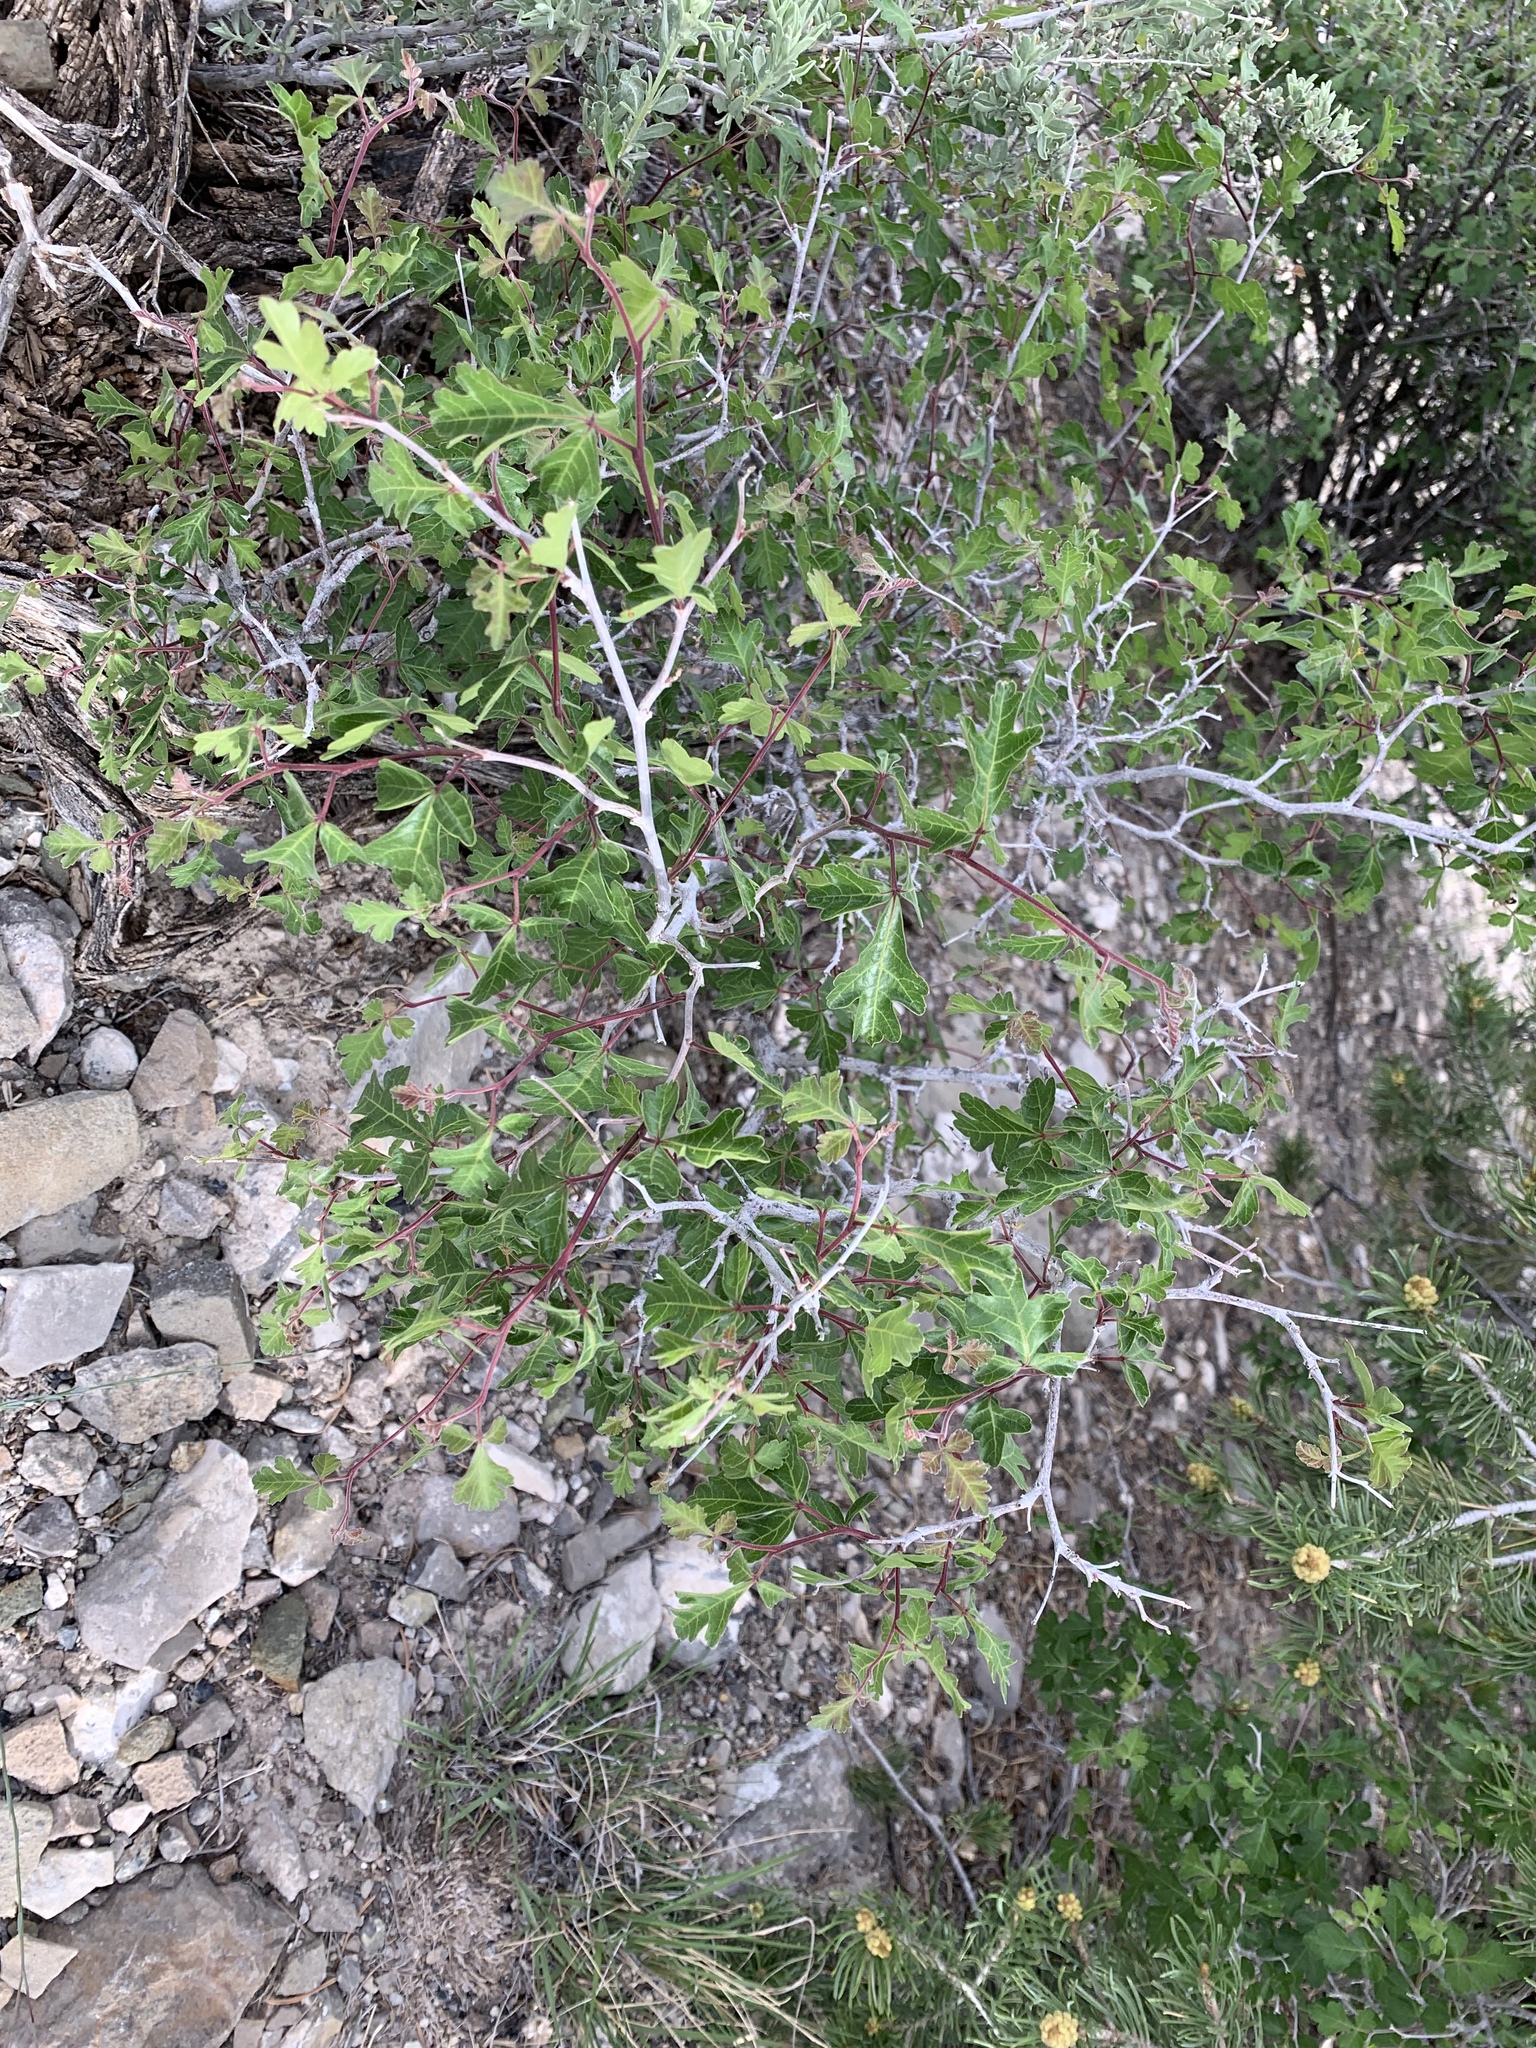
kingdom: Plantae
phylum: Tracheophyta
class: Magnoliopsida
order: Sapindales
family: Anacardiaceae
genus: Rhus
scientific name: Rhus aromatica
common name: Aromatic sumac
